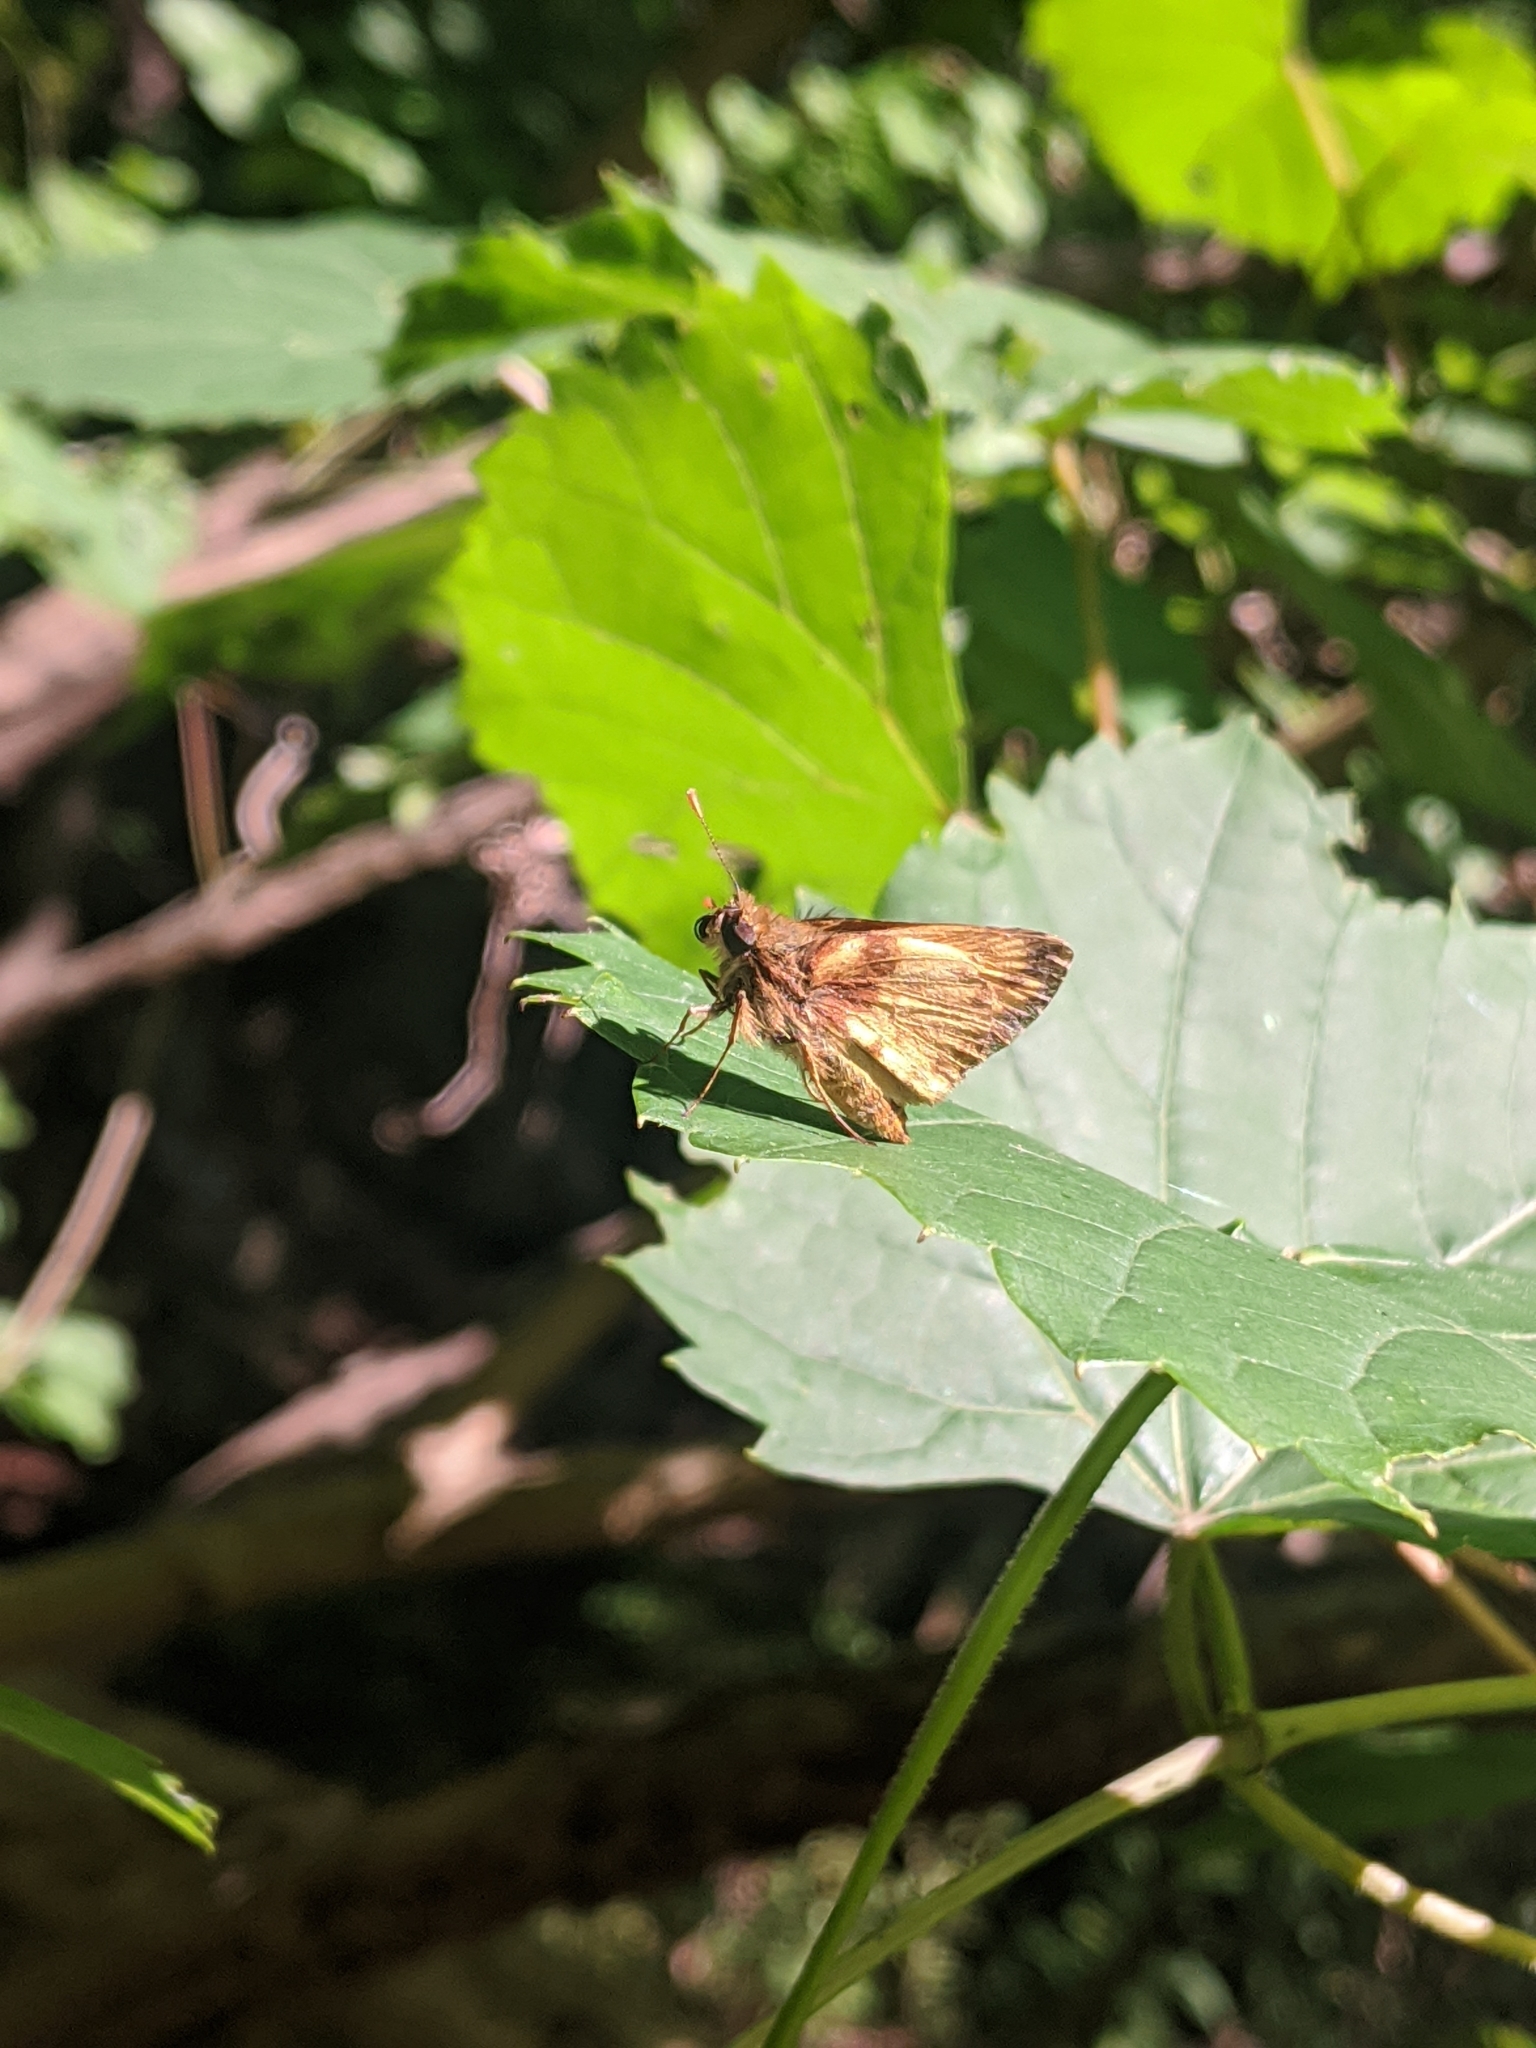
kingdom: Animalia
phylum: Arthropoda
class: Insecta
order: Lepidoptera
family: Hesperiidae
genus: Lon
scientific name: Lon zabulon
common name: Zabulon skipper
